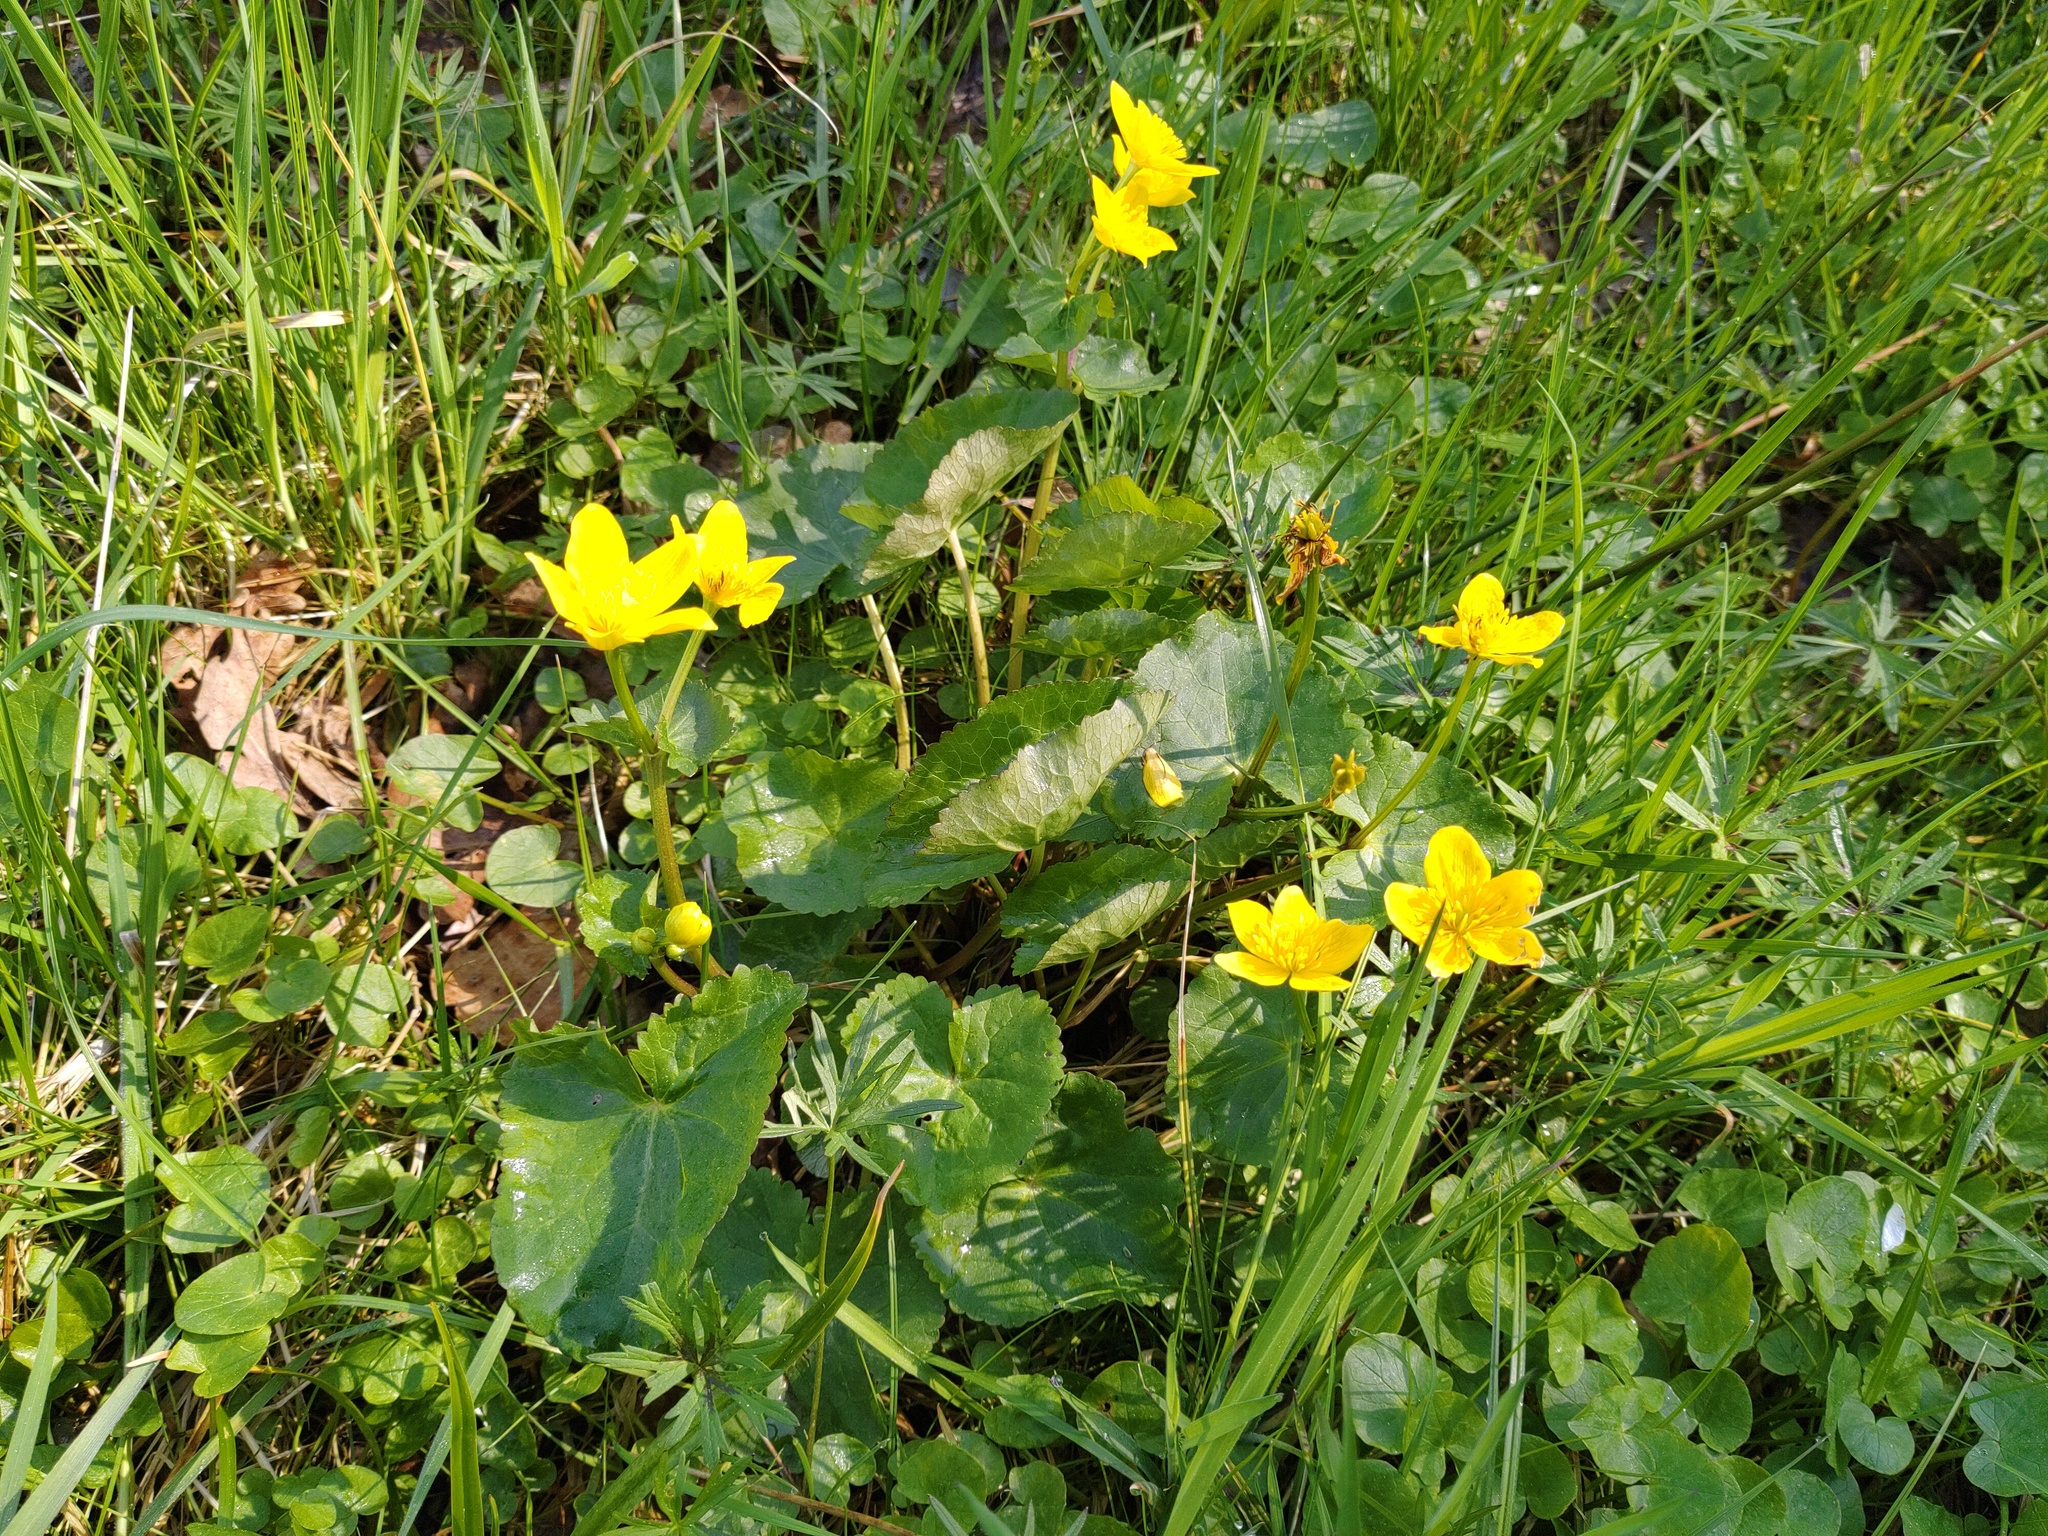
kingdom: Plantae
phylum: Tracheophyta
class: Magnoliopsida
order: Ranunculales
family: Ranunculaceae
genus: Caltha
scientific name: Caltha palustris
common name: Marsh marigold
